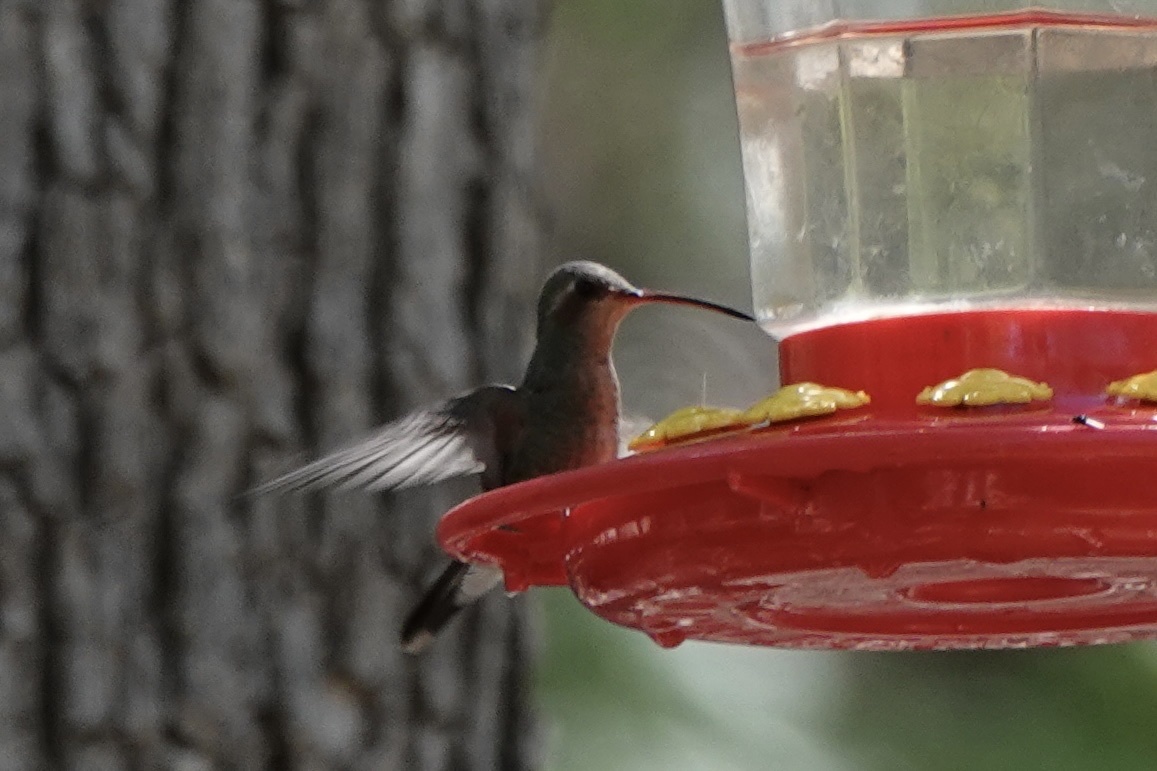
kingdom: Animalia
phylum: Chordata
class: Aves
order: Apodiformes
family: Trochilidae
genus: Cynanthus
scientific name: Cynanthus latirostris
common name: Broad-billed hummingbird
